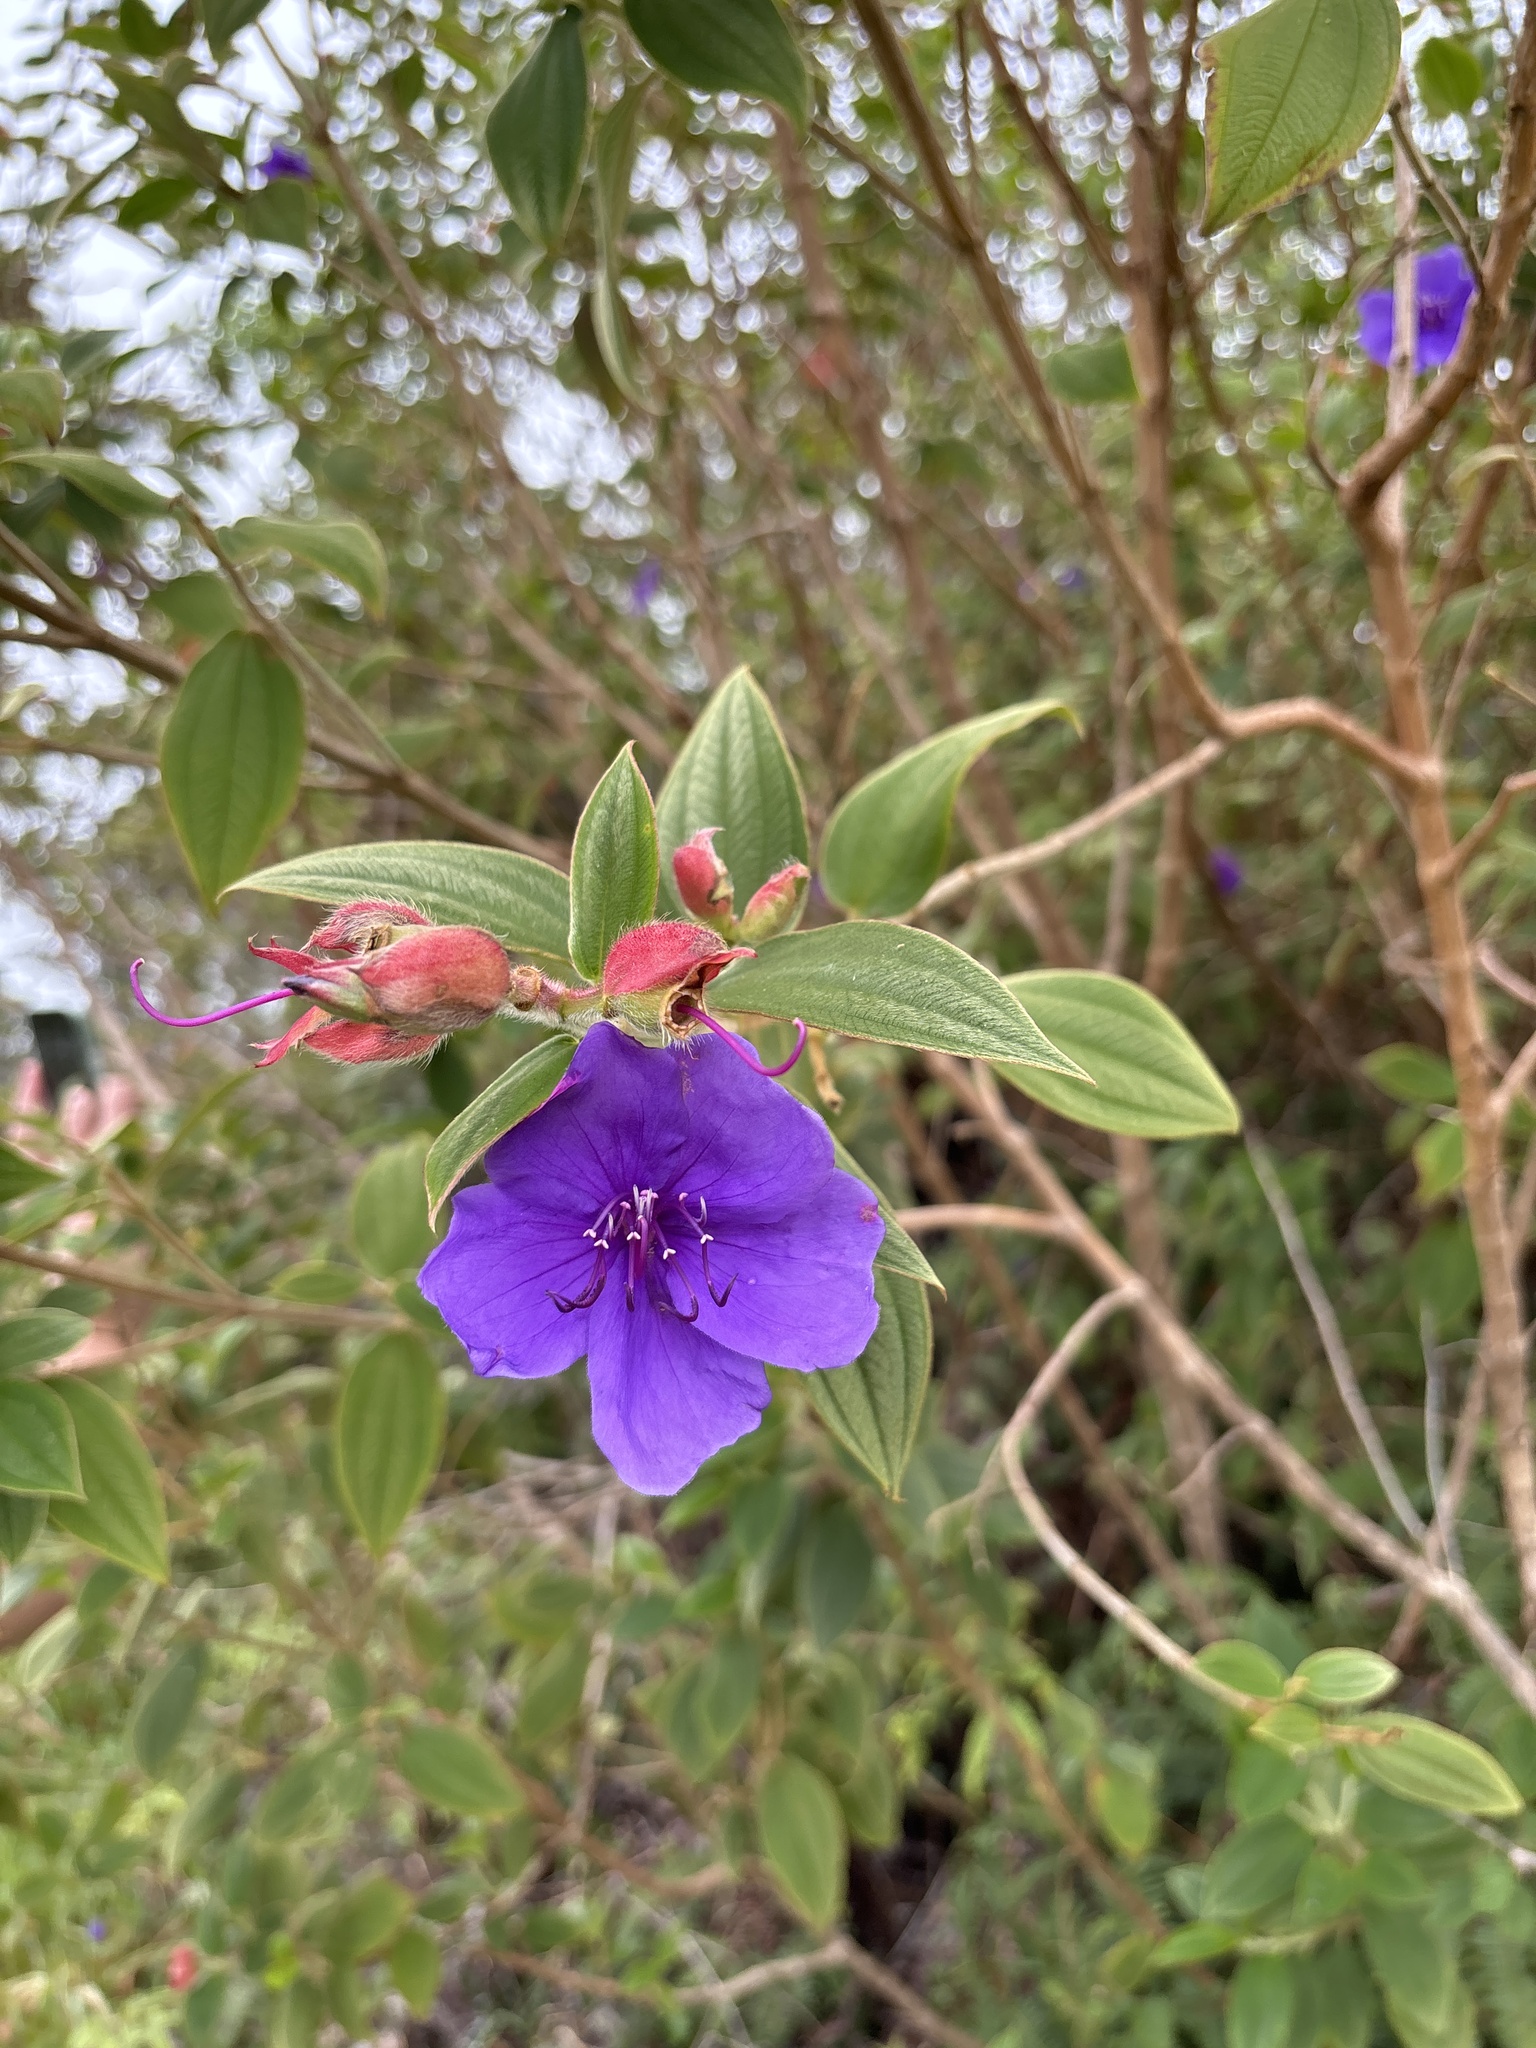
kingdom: Plantae
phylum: Tracheophyta
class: Magnoliopsida
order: Myrtales
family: Melastomataceae
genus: Pleroma
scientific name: Pleroma urvilleanum
